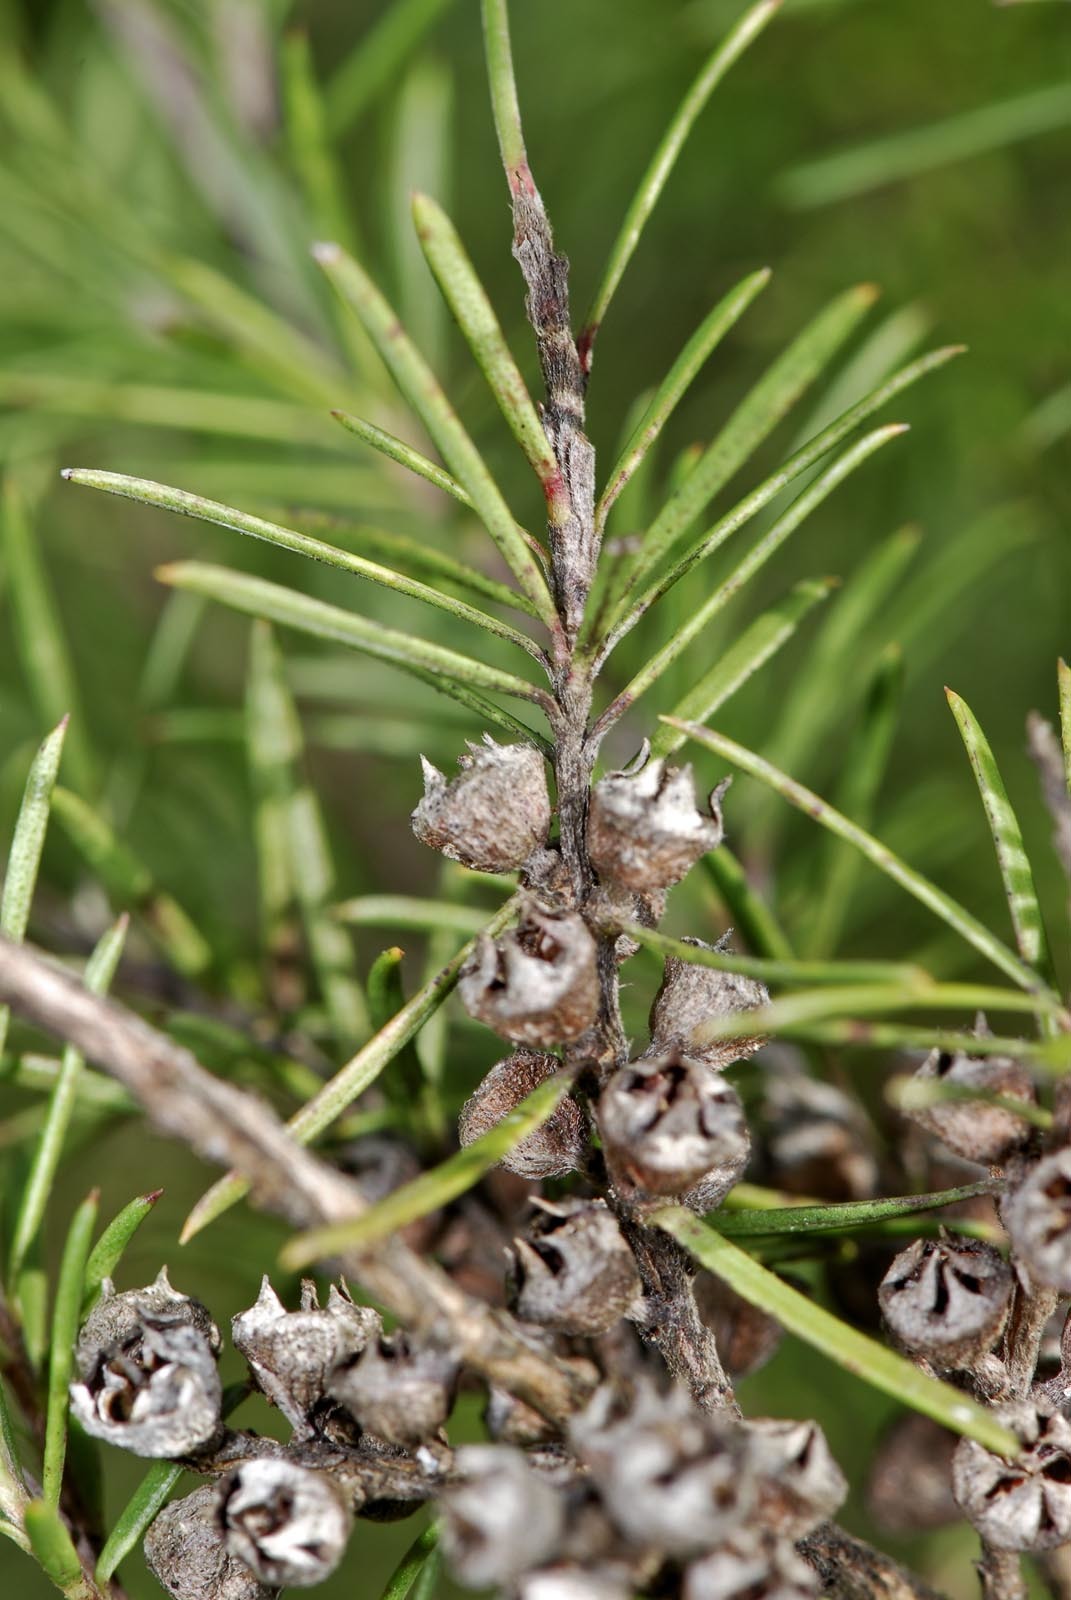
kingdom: Plantae
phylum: Tracheophyta
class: Magnoliopsida
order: Myrtales
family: Myrtaceae
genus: Kunzea
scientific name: Kunzea linearis
